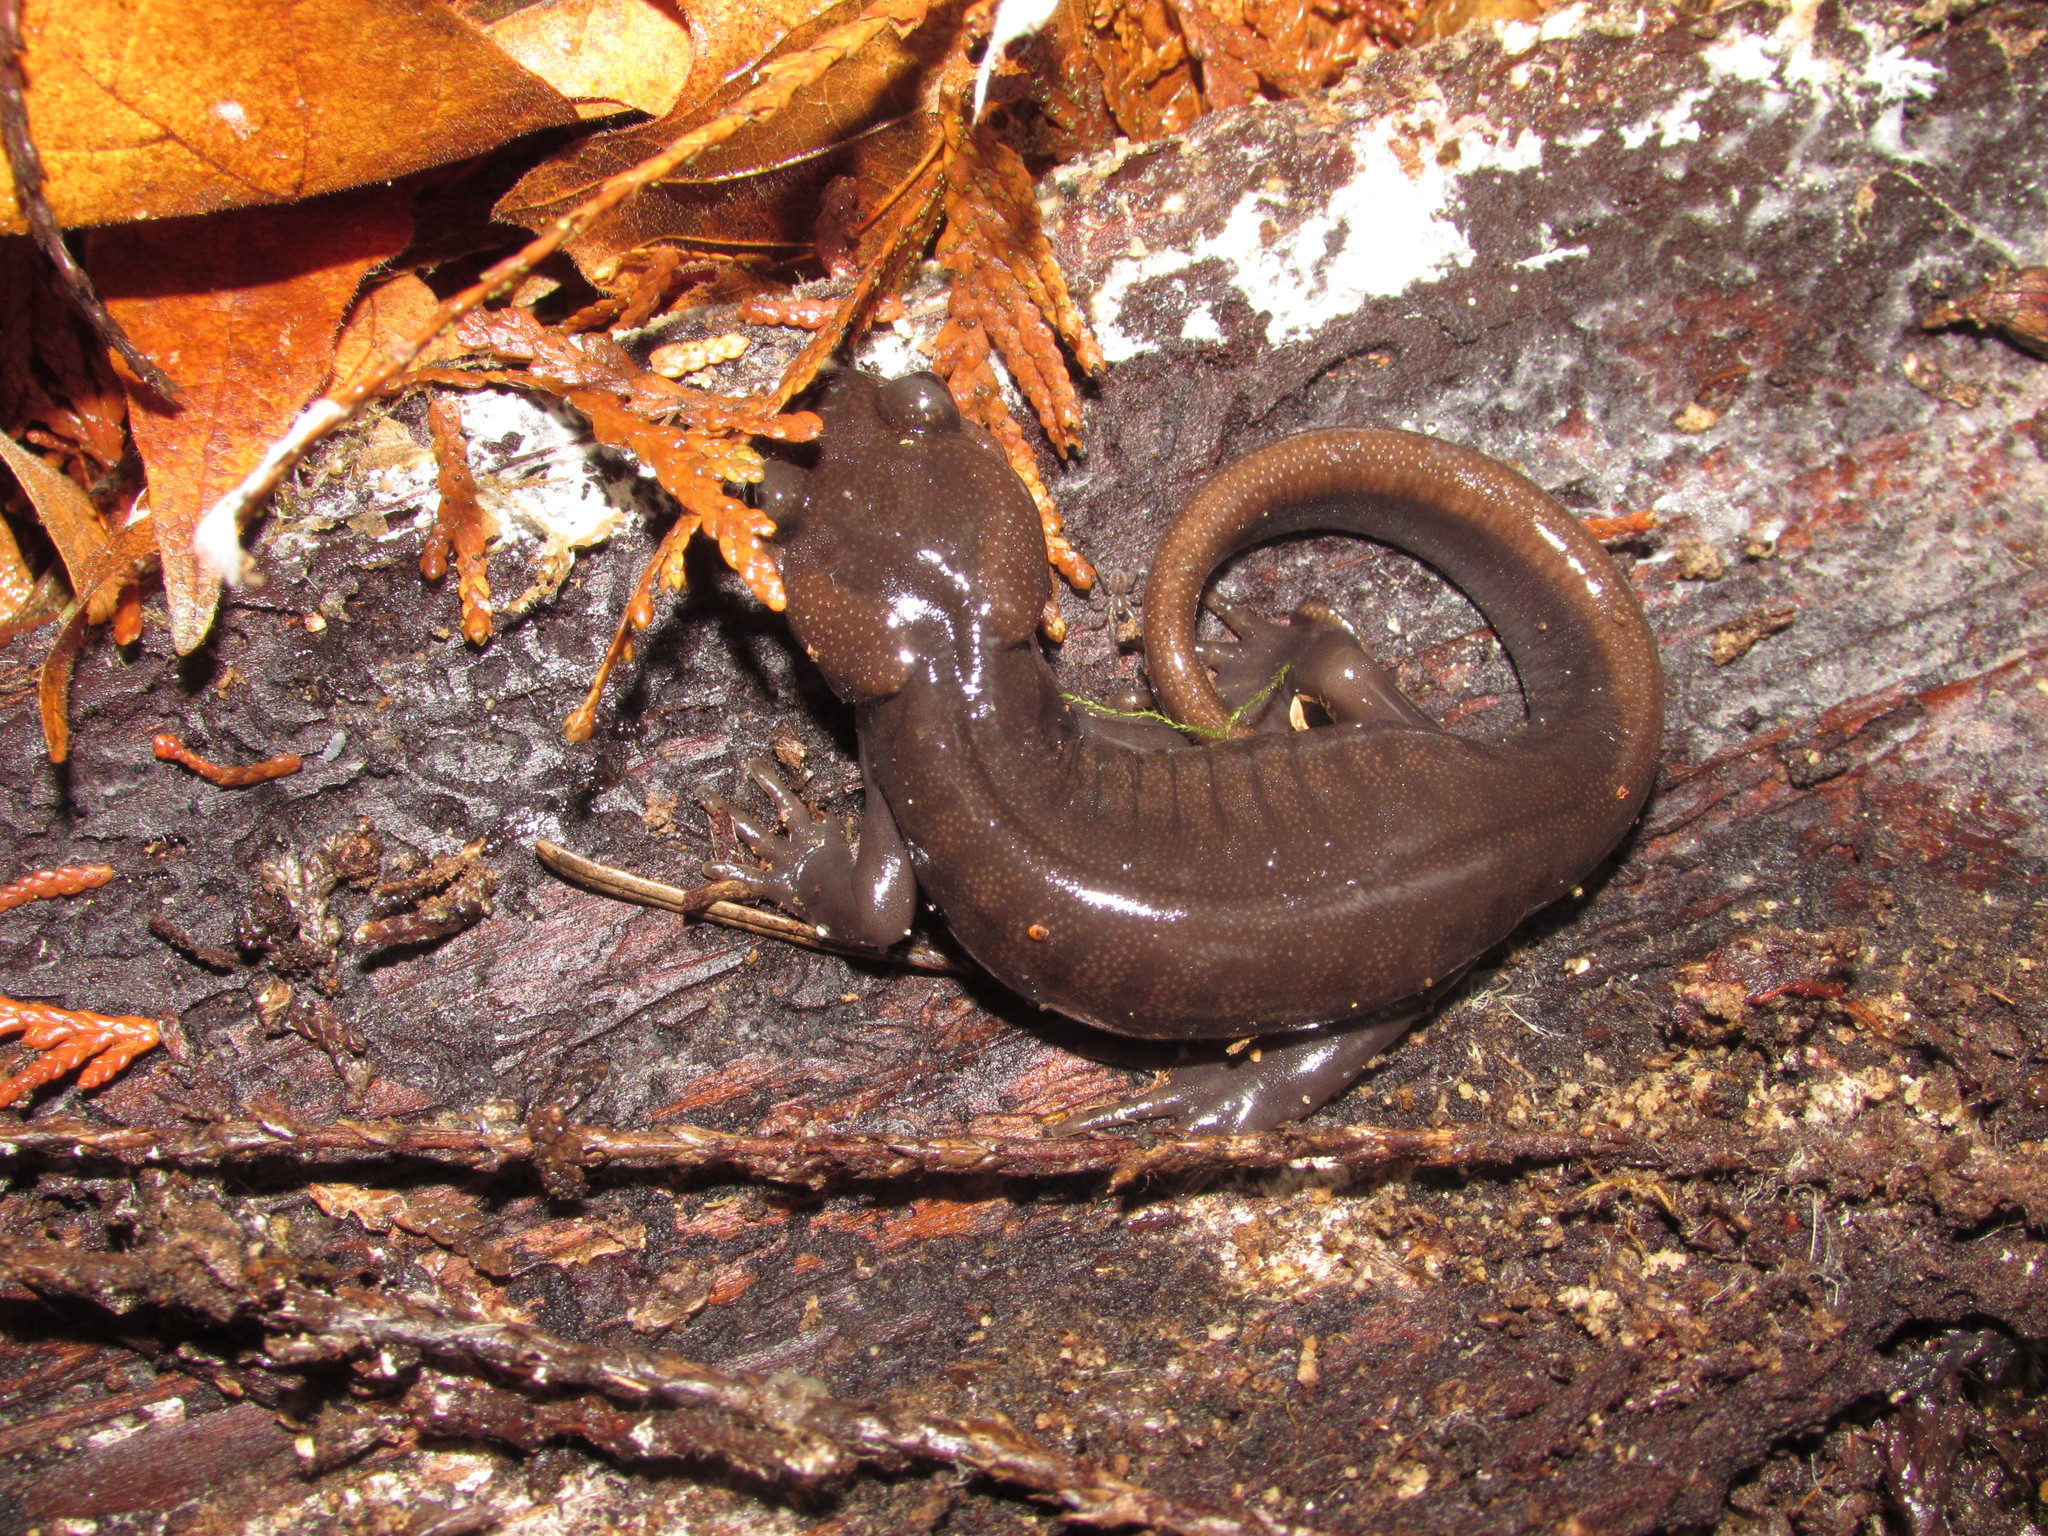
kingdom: Animalia
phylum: Chordata
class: Amphibia
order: Caudata
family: Ambystomatidae
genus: Ambystoma
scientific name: Ambystoma gracile
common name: Northwestern salamander
